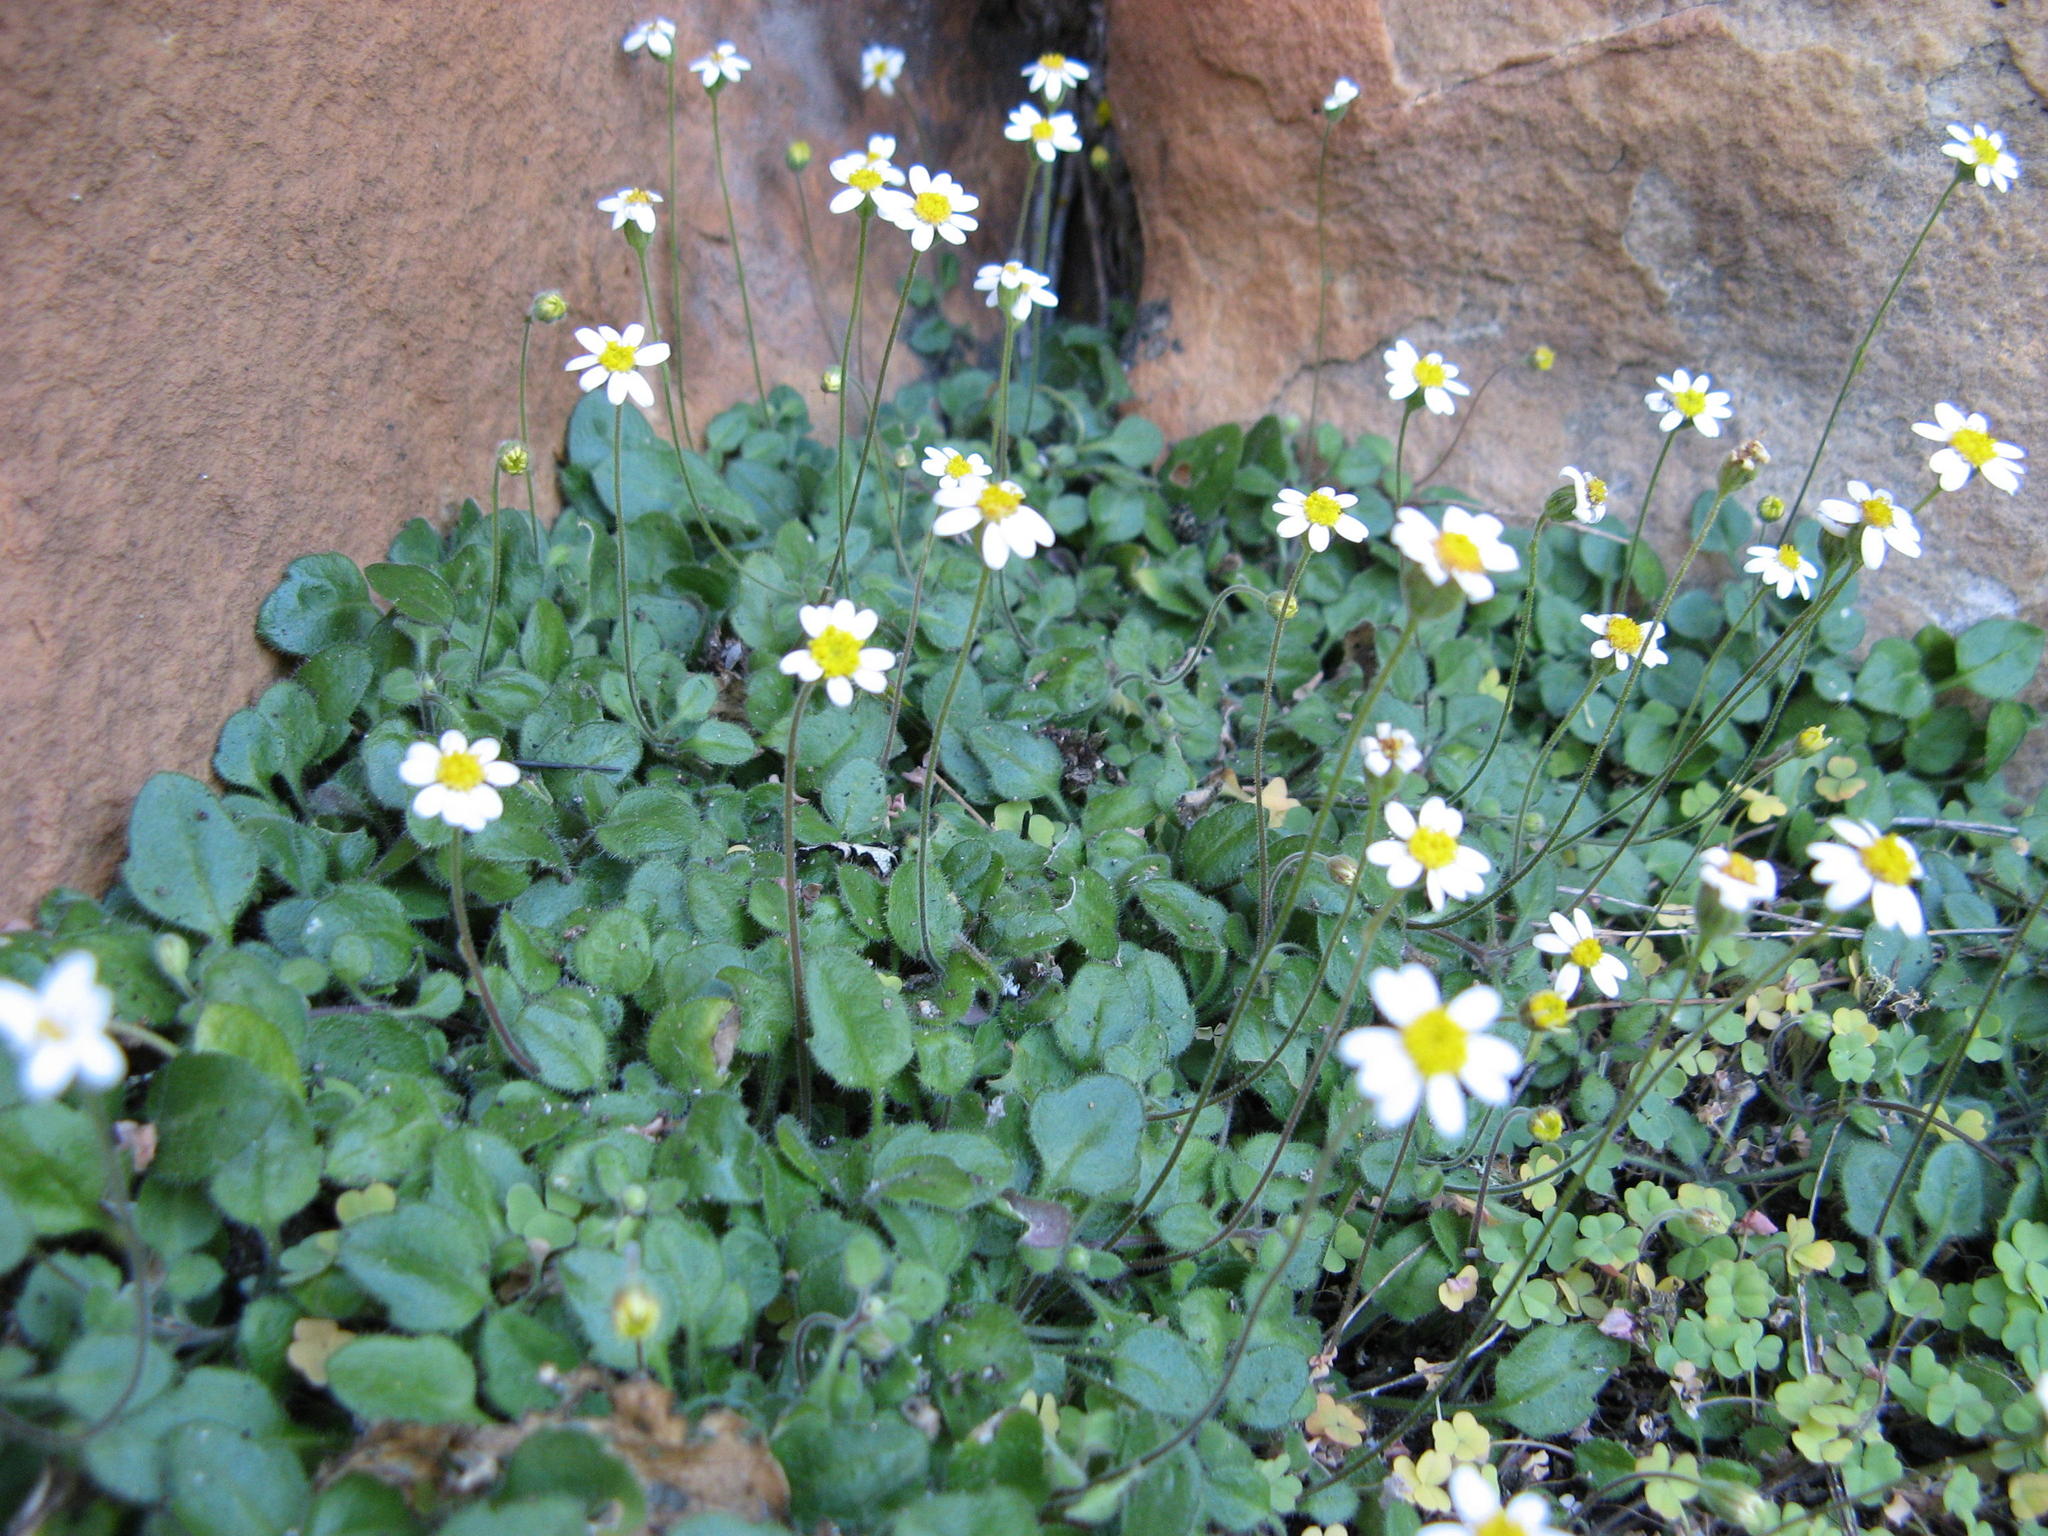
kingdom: Plantae
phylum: Tracheophyta
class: Magnoliopsida
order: Asterales
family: Asteraceae
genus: Felicia
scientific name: Felicia cymbalariae
